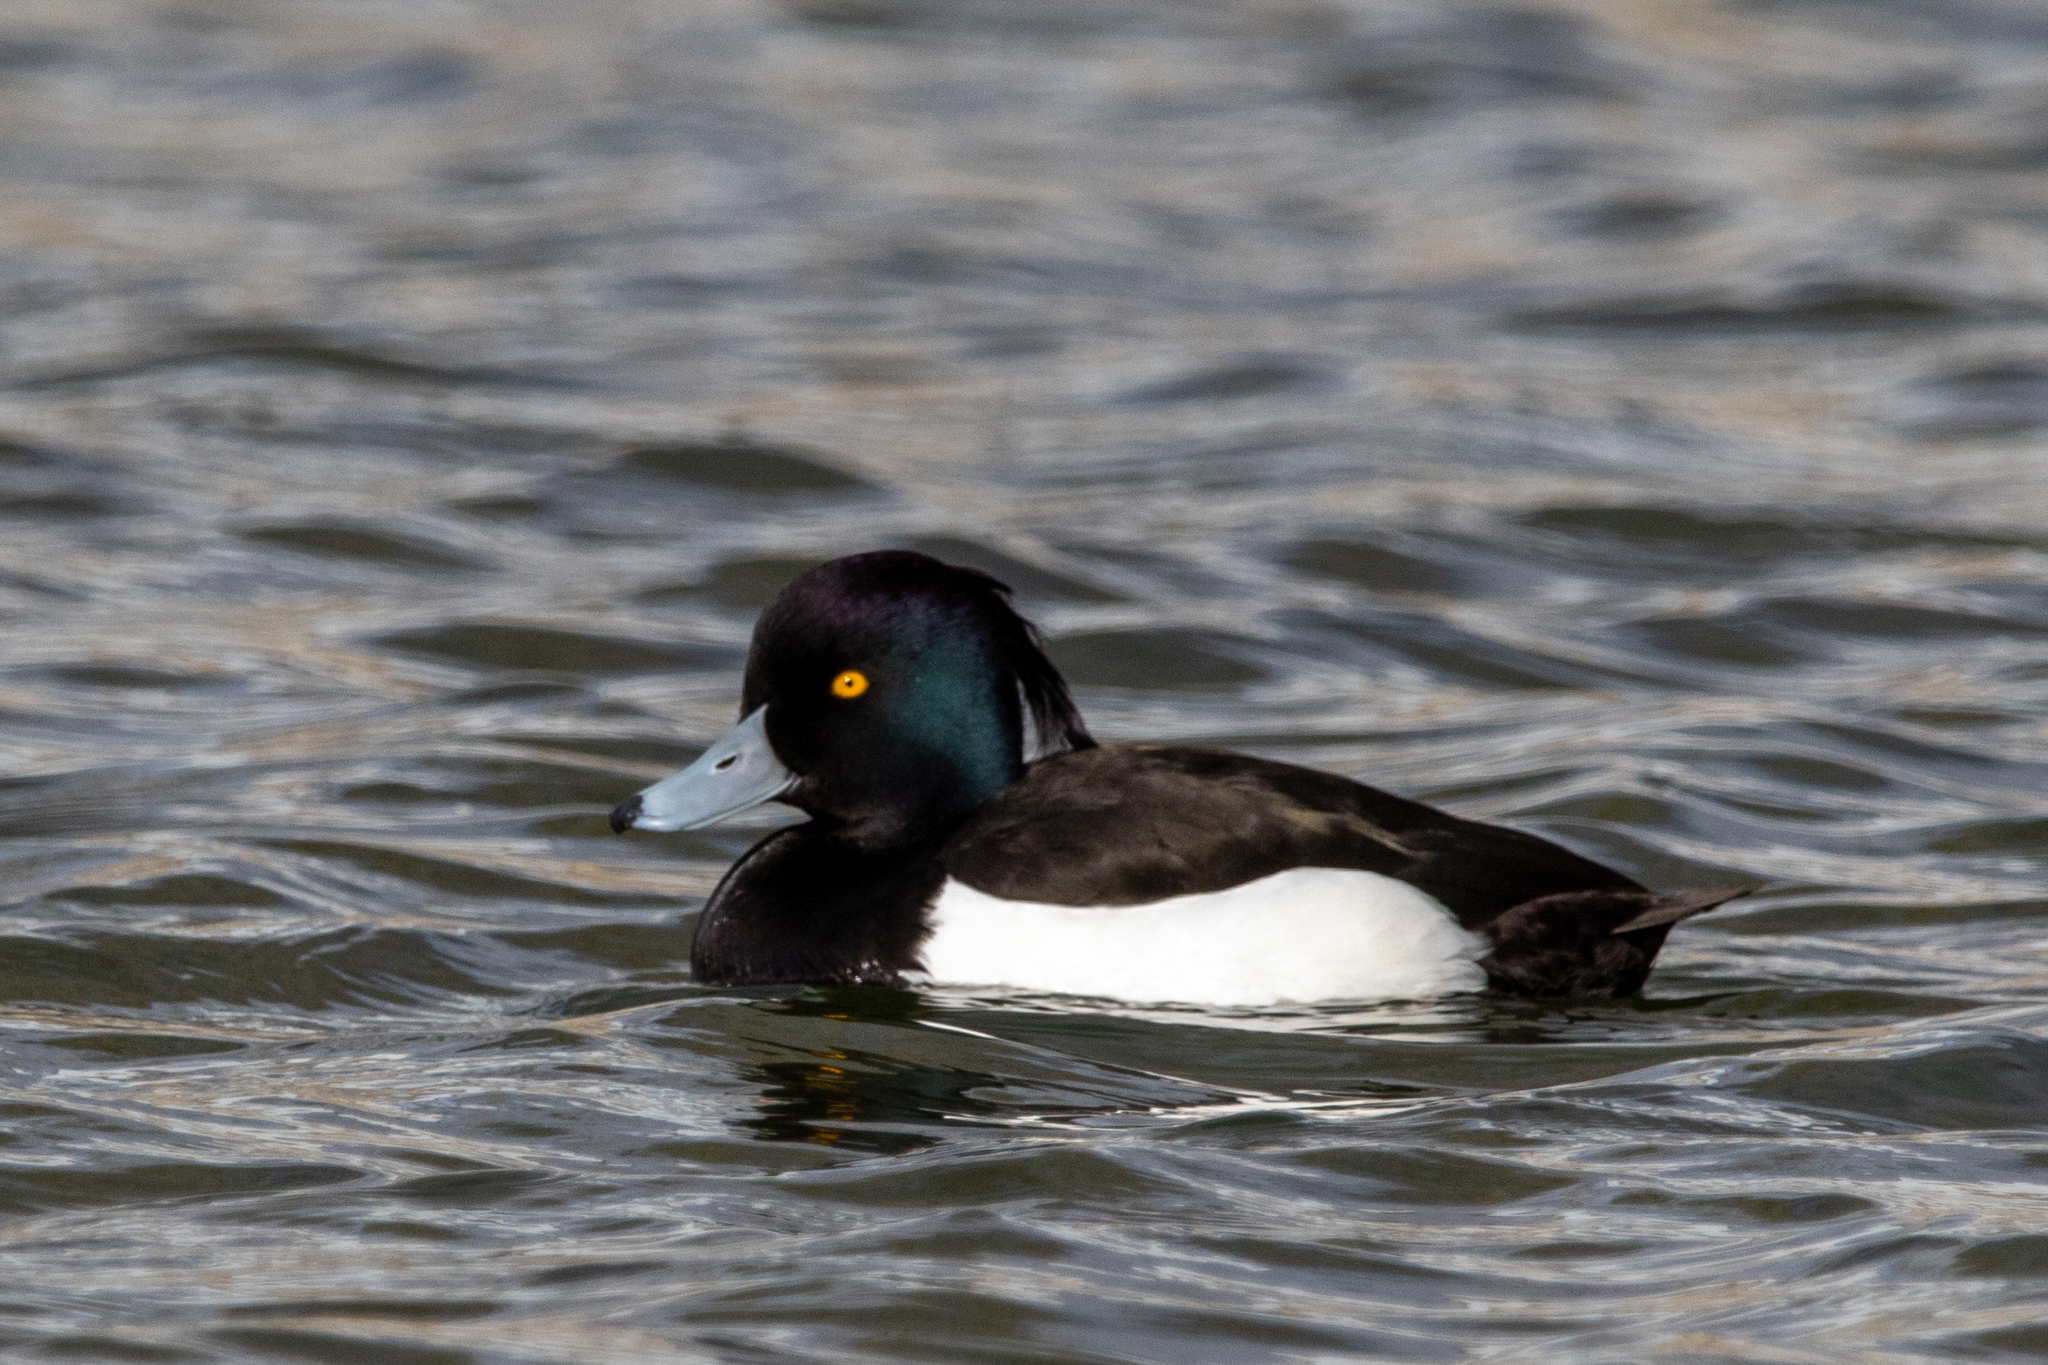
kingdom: Animalia
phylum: Chordata
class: Aves
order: Anseriformes
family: Anatidae
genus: Aythya
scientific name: Aythya fuligula
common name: Tufted duck
